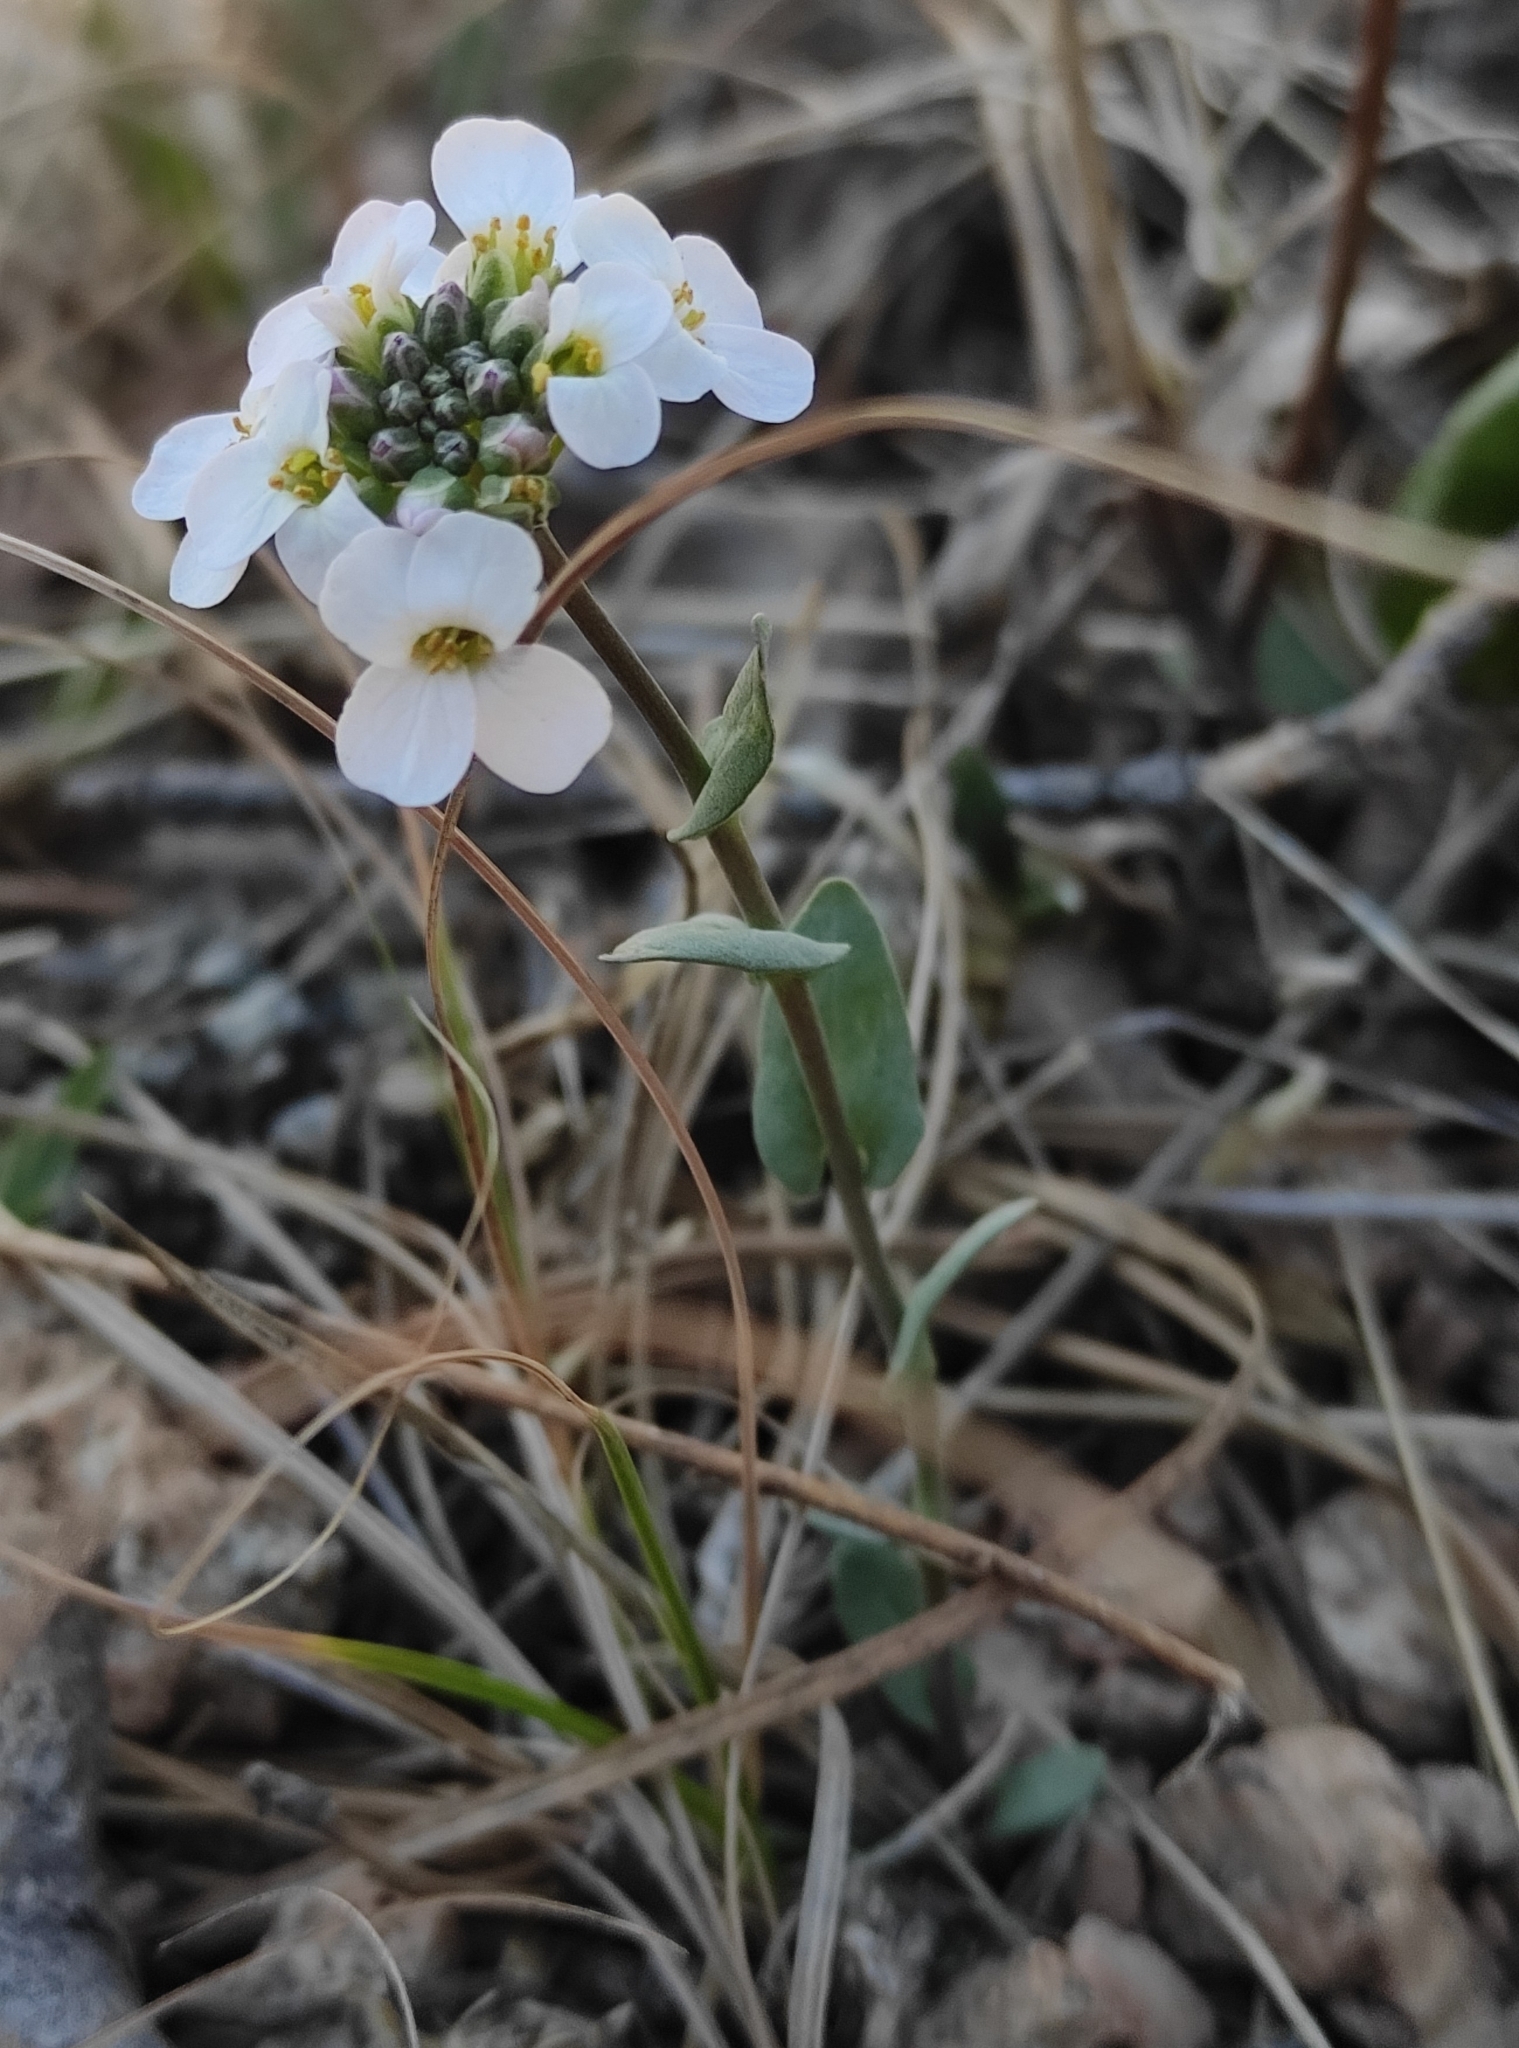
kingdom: Plantae
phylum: Tracheophyta
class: Magnoliopsida
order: Brassicales
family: Brassicaceae
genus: Noccaea
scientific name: Noccaea thlaspidioides
